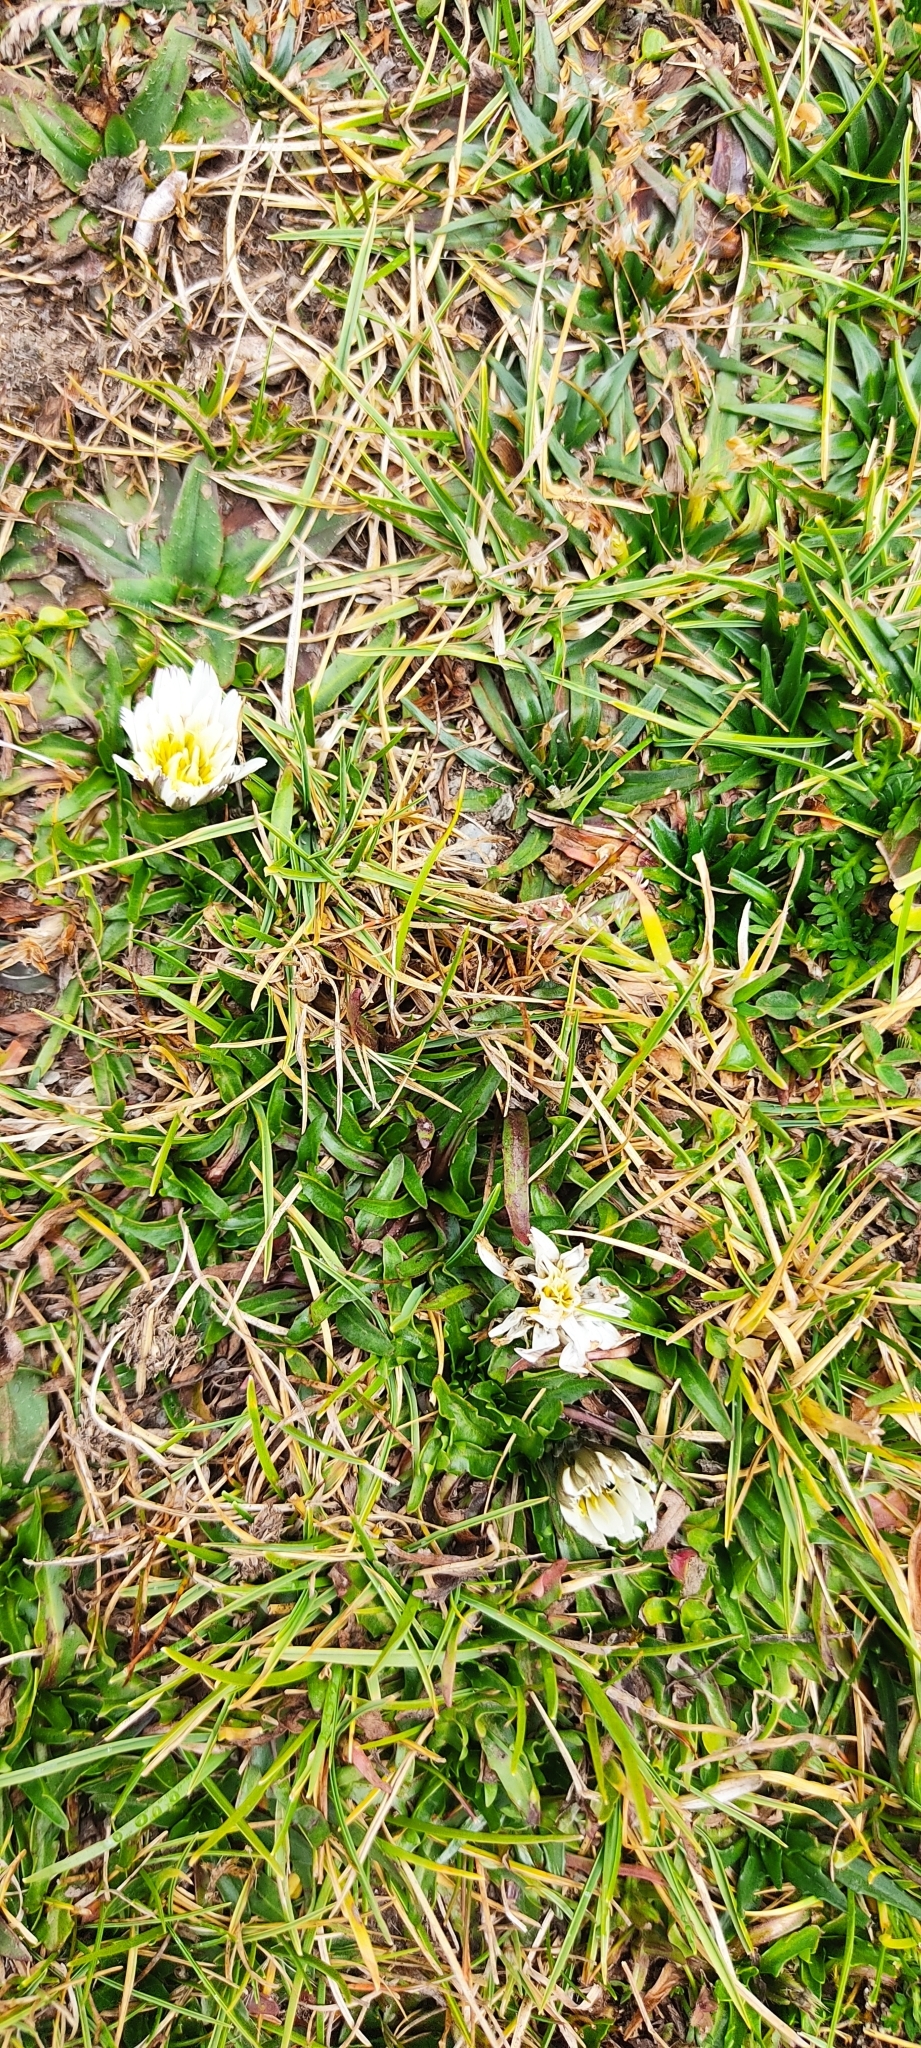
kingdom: Plantae
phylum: Tracheophyta
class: Magnoliopsida
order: Asterales
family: Asteraceae
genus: Hypochaeris
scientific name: Hypochaeris taraxacoides
